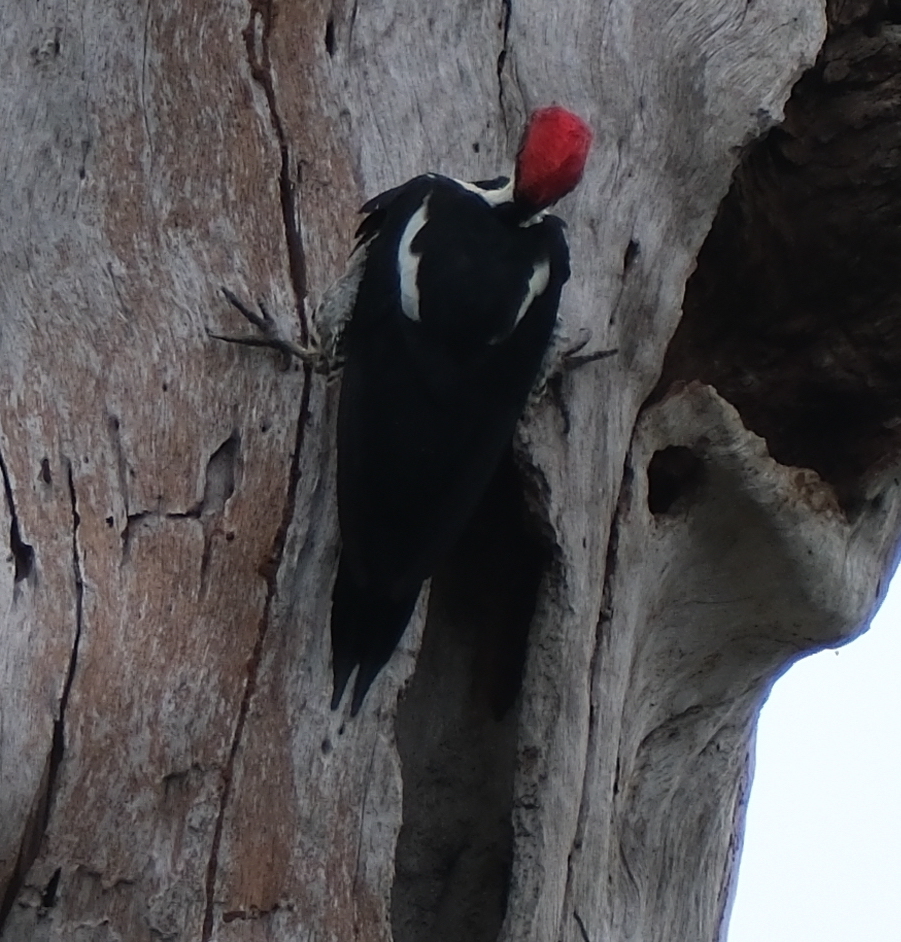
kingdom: Animalia
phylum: Chordata
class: Aves
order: Piciformes
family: Picidae
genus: Dryocopus
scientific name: Dryocopus lineatus
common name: Lineated woodpecker
